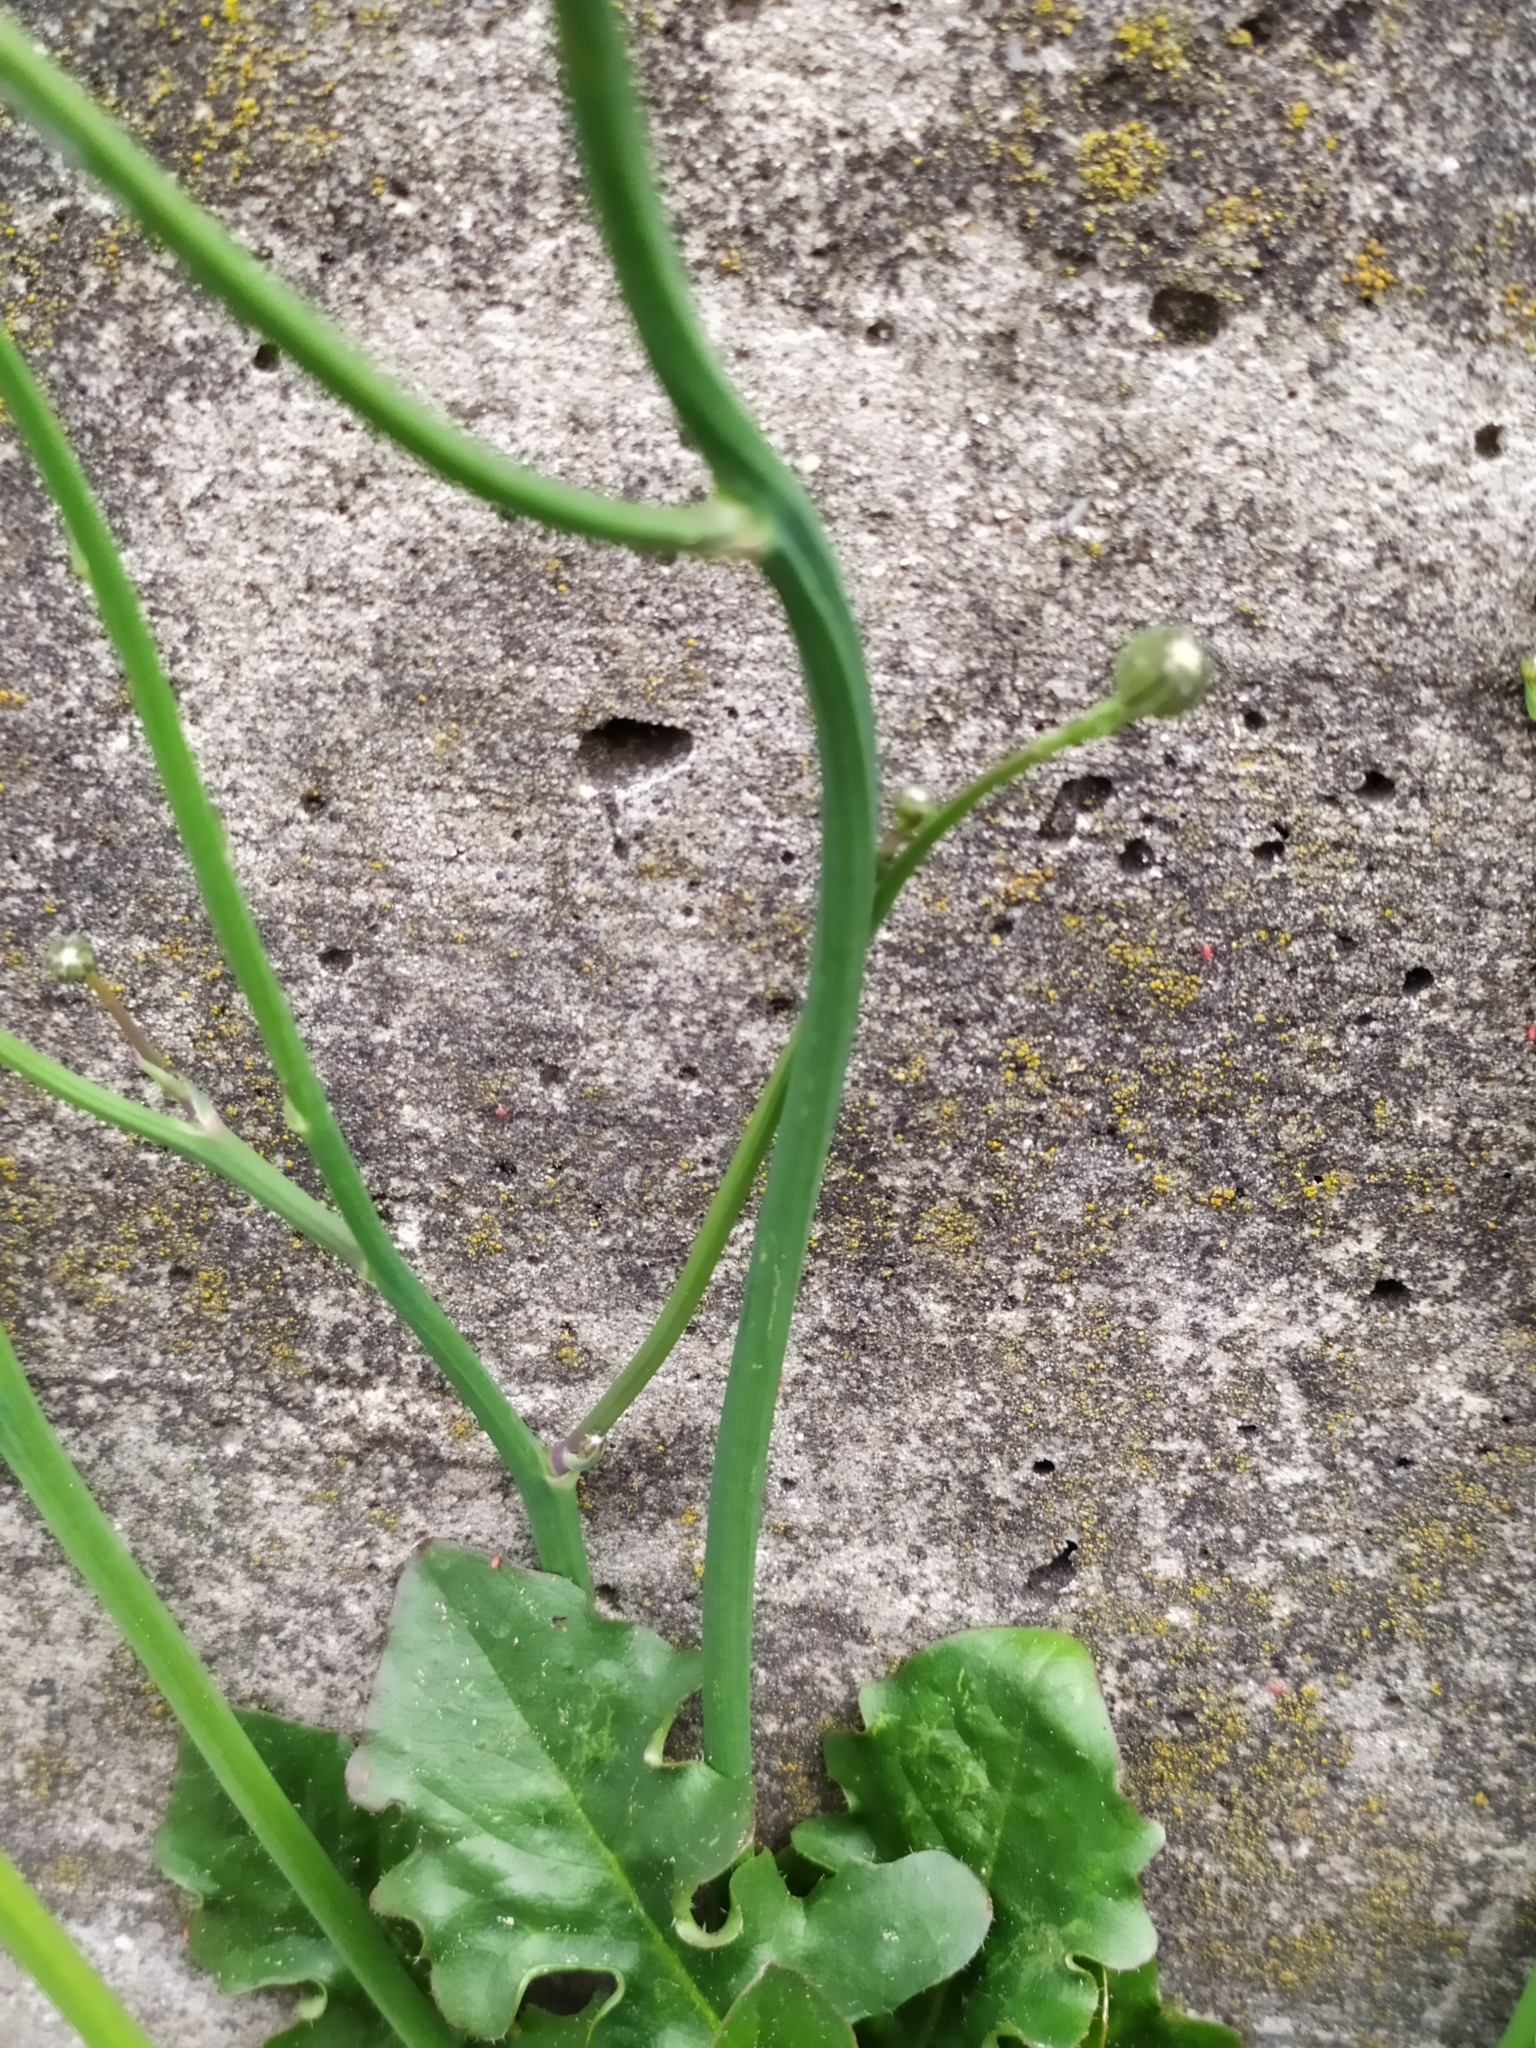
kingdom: Plantae
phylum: Tracheophyta
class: Magnoliopsida
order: Asterales
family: Asteraceae
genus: Hypochaeris
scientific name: Hypochaeris radicata
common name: Flatweed
